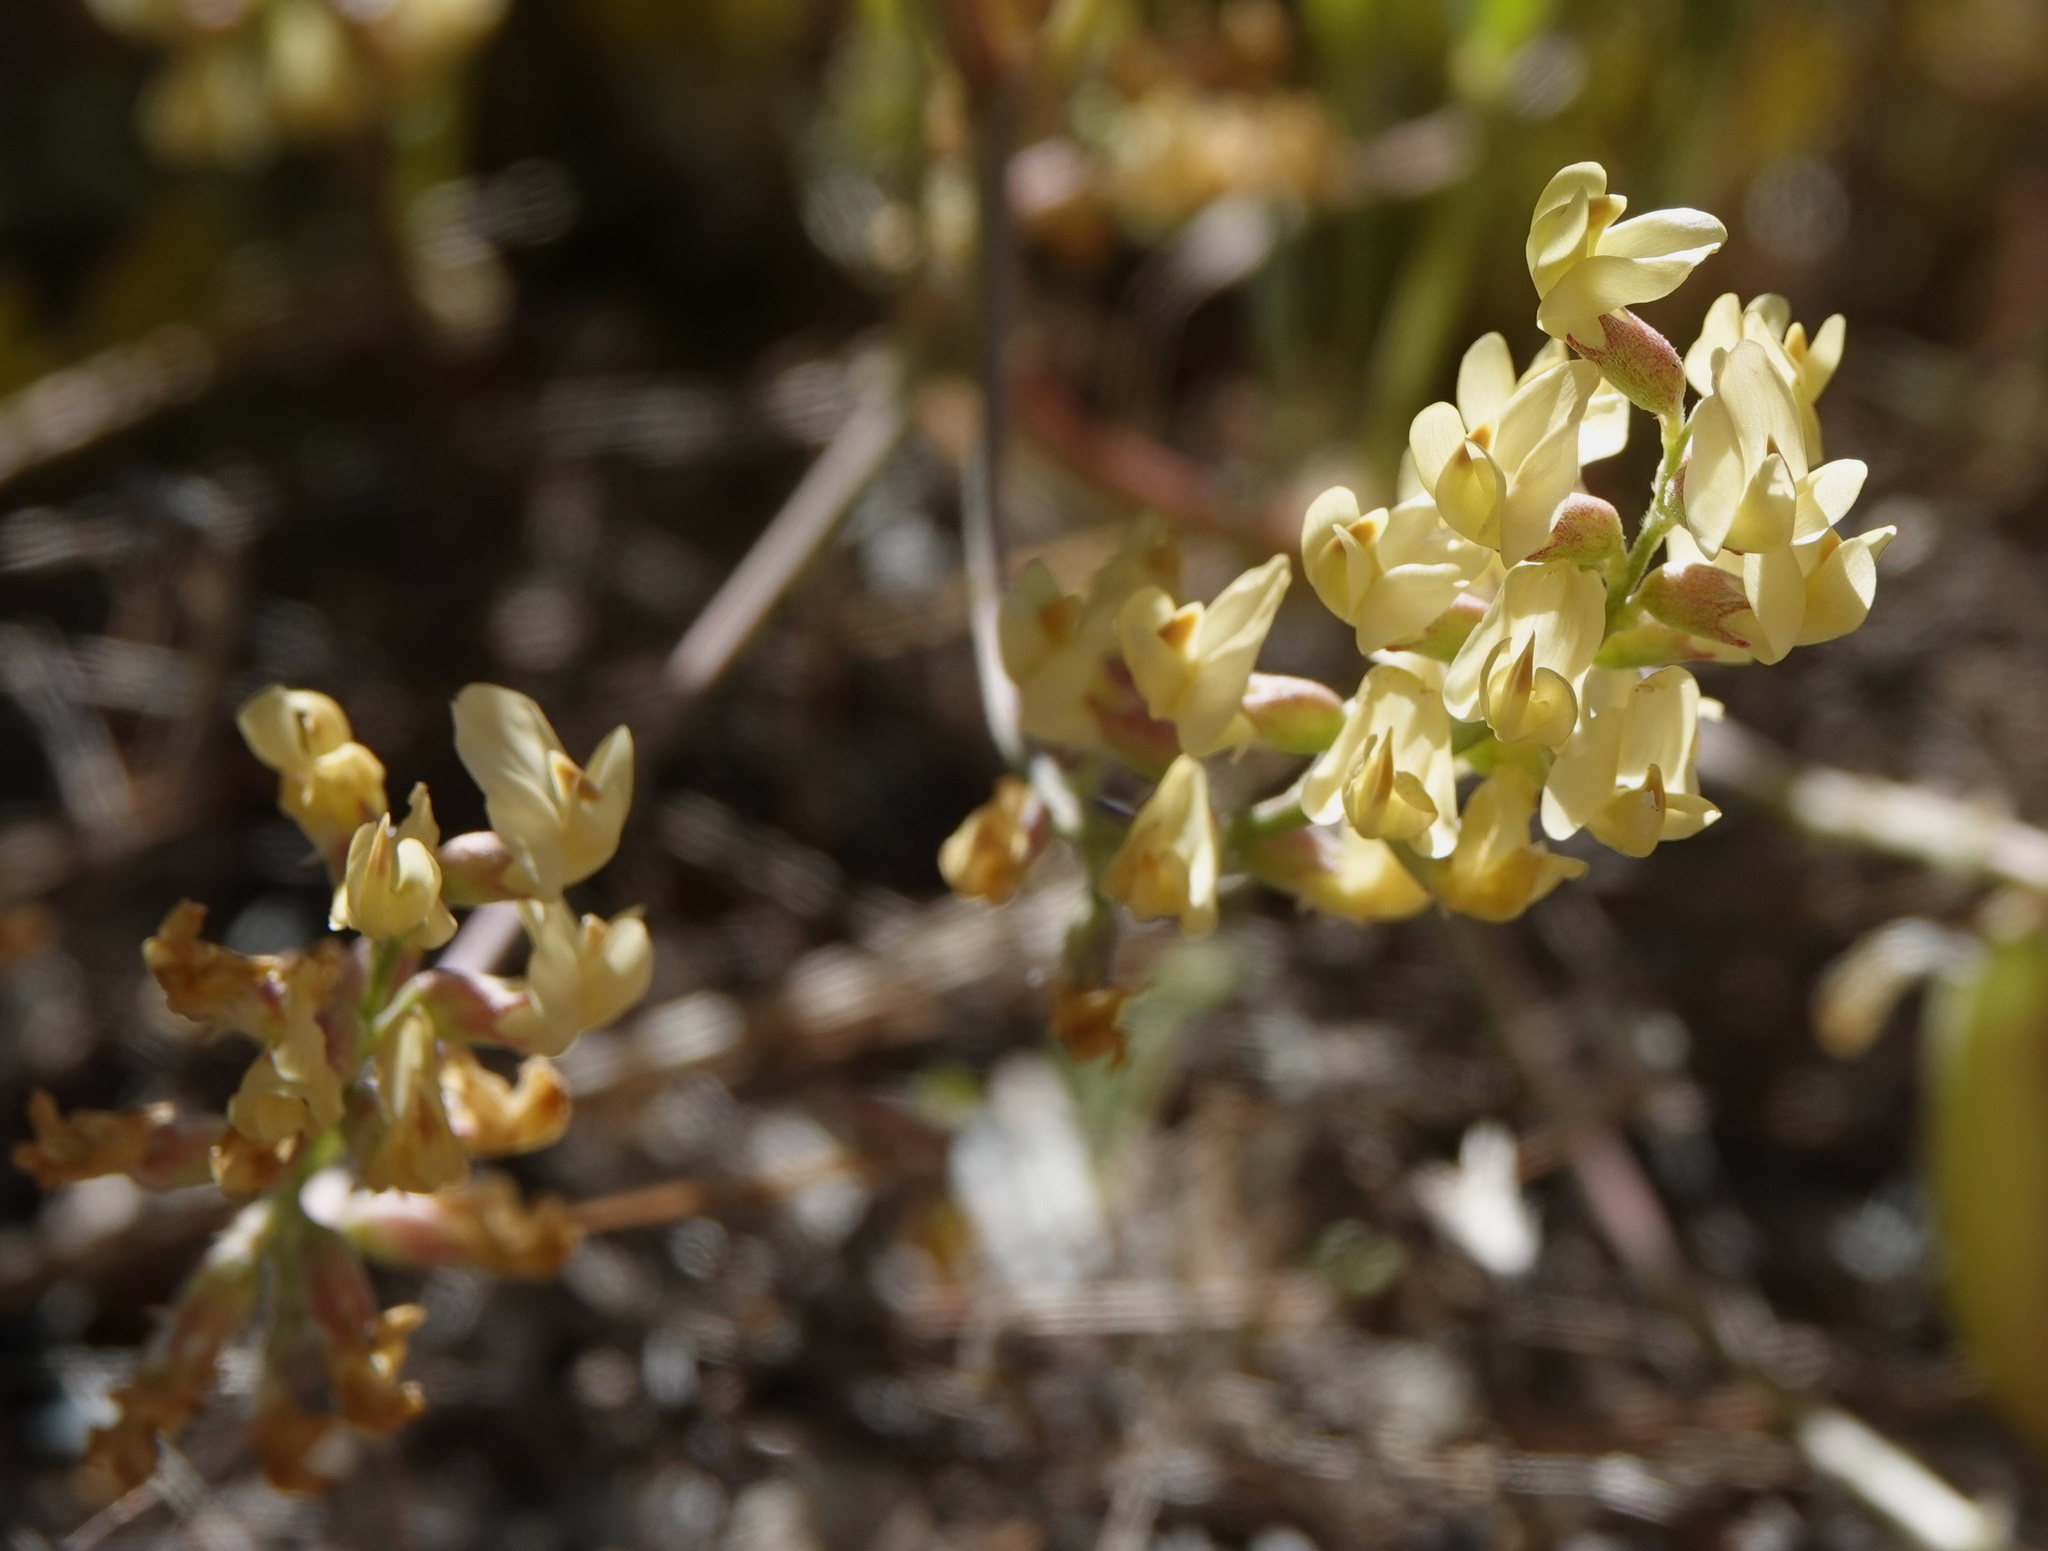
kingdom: Plantae
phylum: Tracheophyta
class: Magnoliopsida
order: Fabales
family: Fabaceae
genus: Astragalus
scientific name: Astragalus douglasii
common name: Jacumba milkvetch
